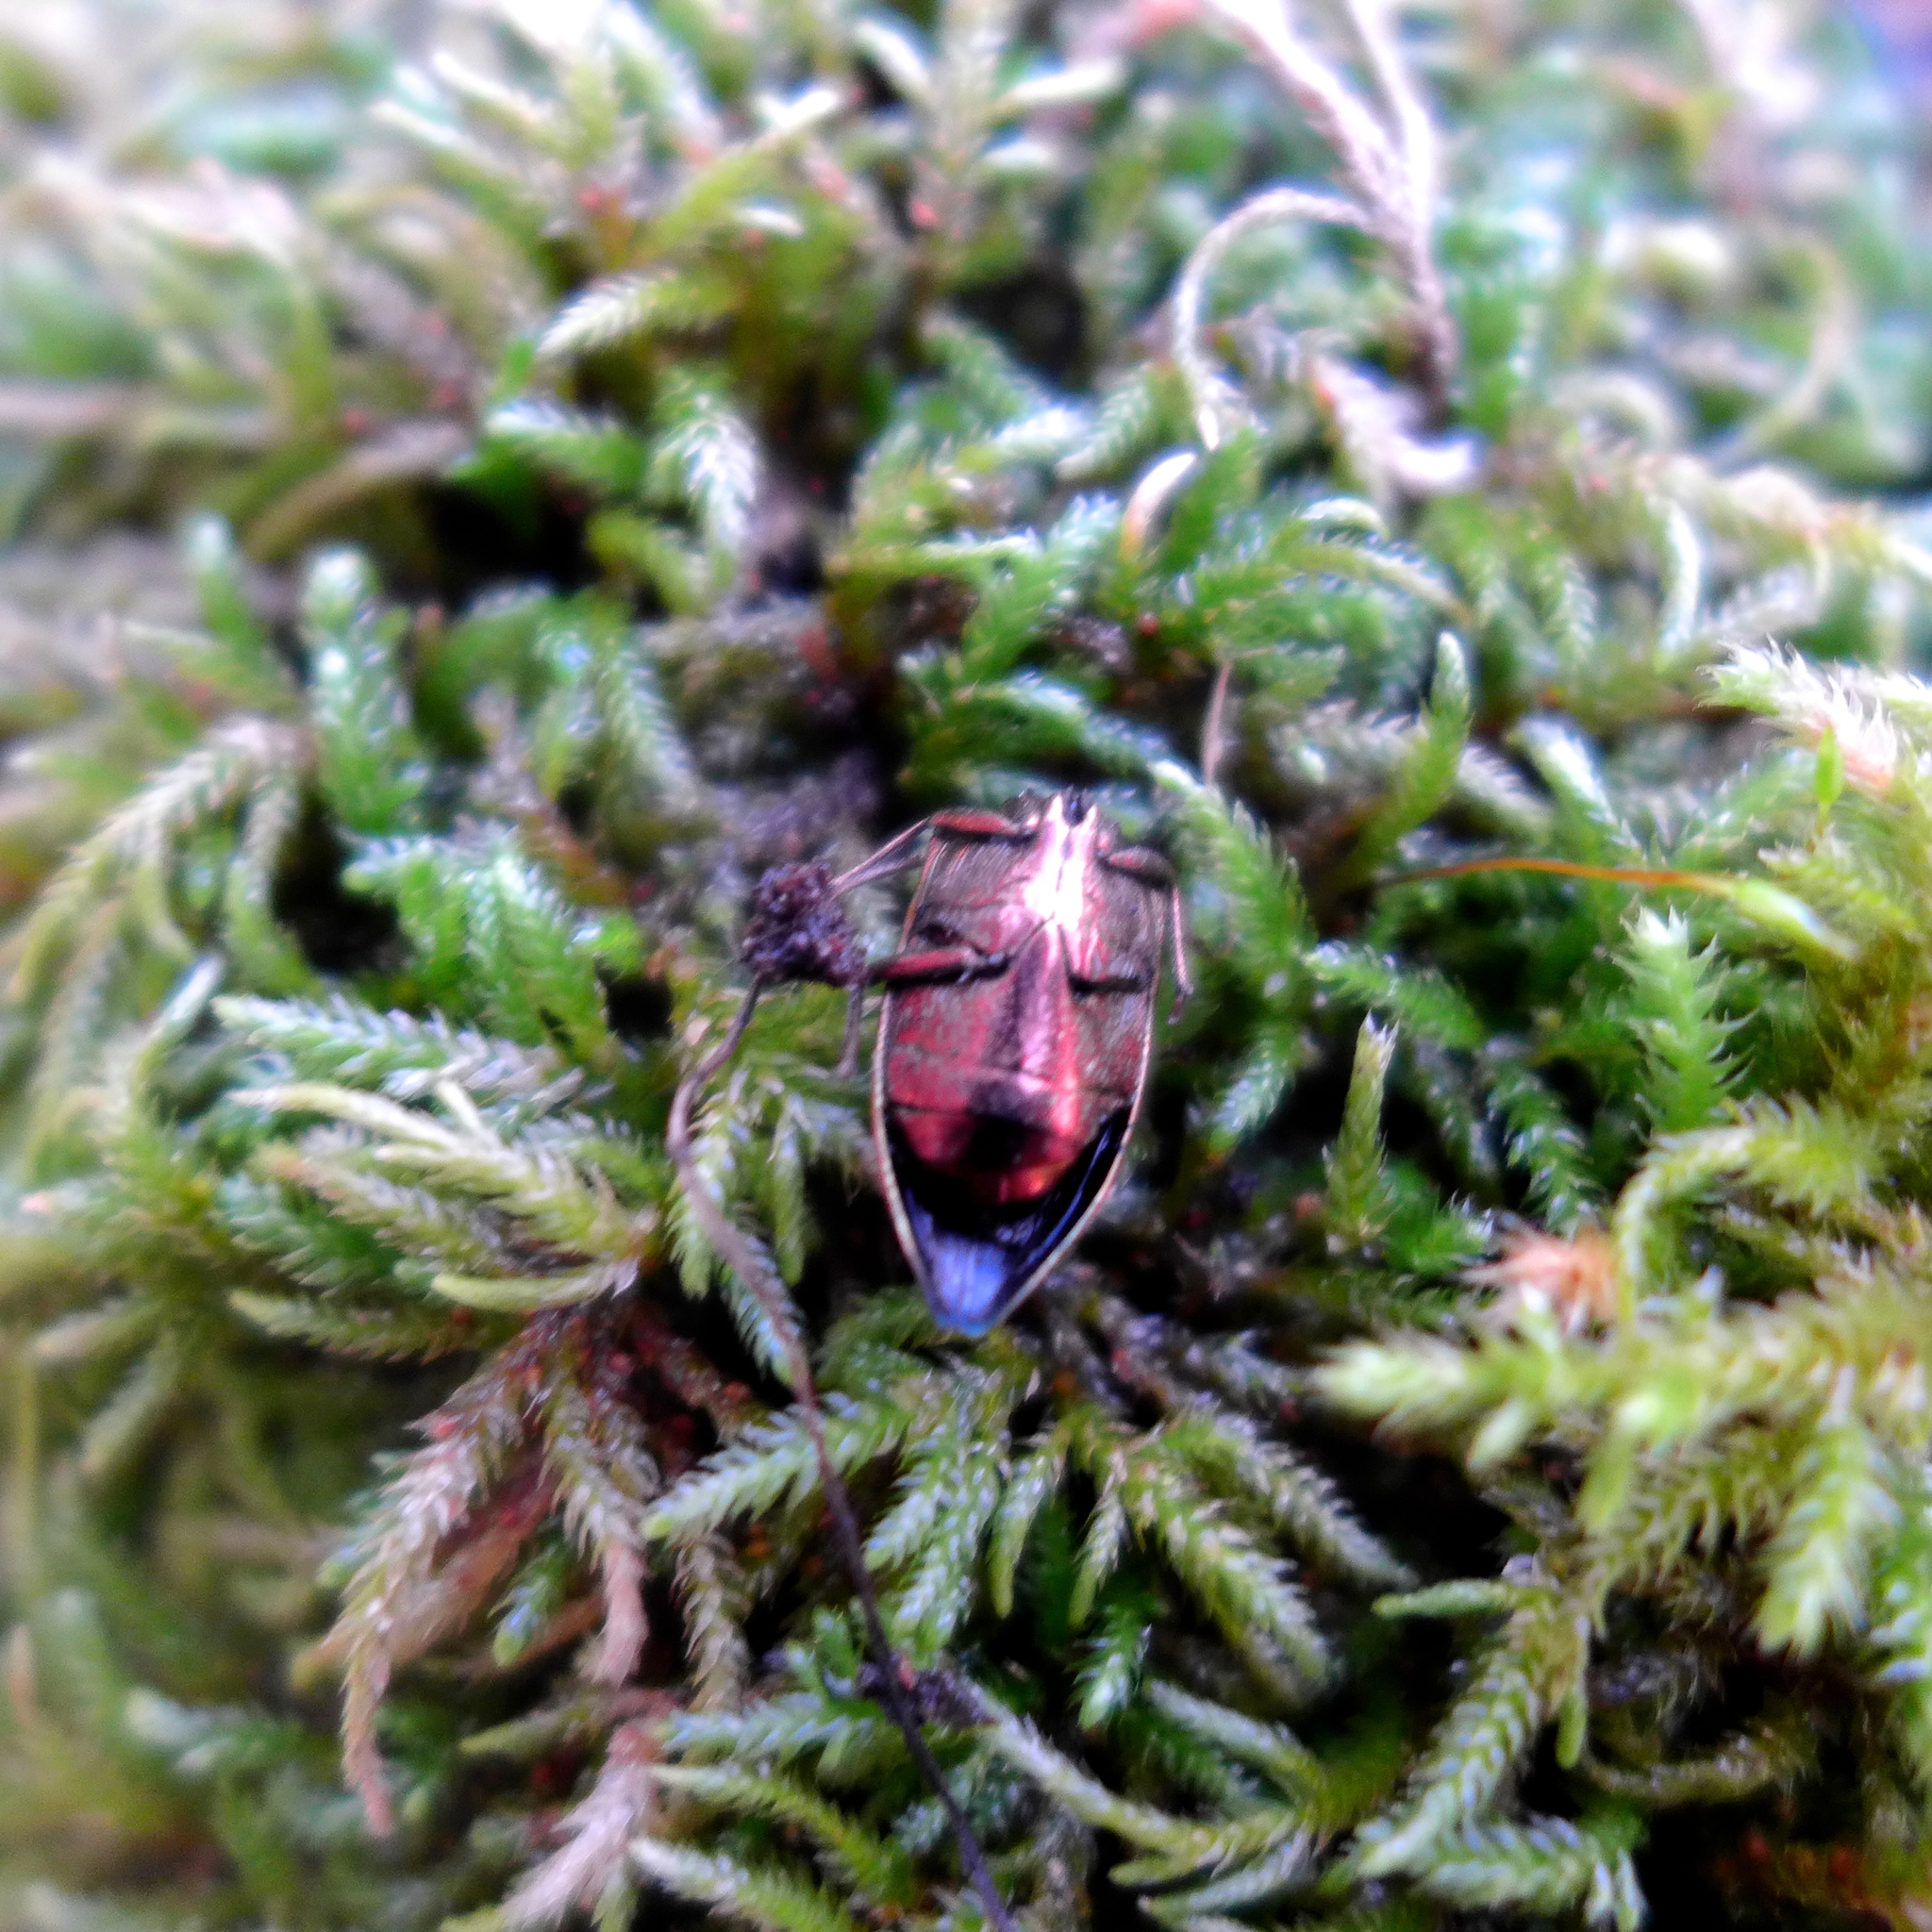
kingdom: Animalia
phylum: Arthropoda
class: Insecta
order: Coleoptera
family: Buprestidae
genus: Buprestis
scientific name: Buprestis aurulenta
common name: Golden buprestid
